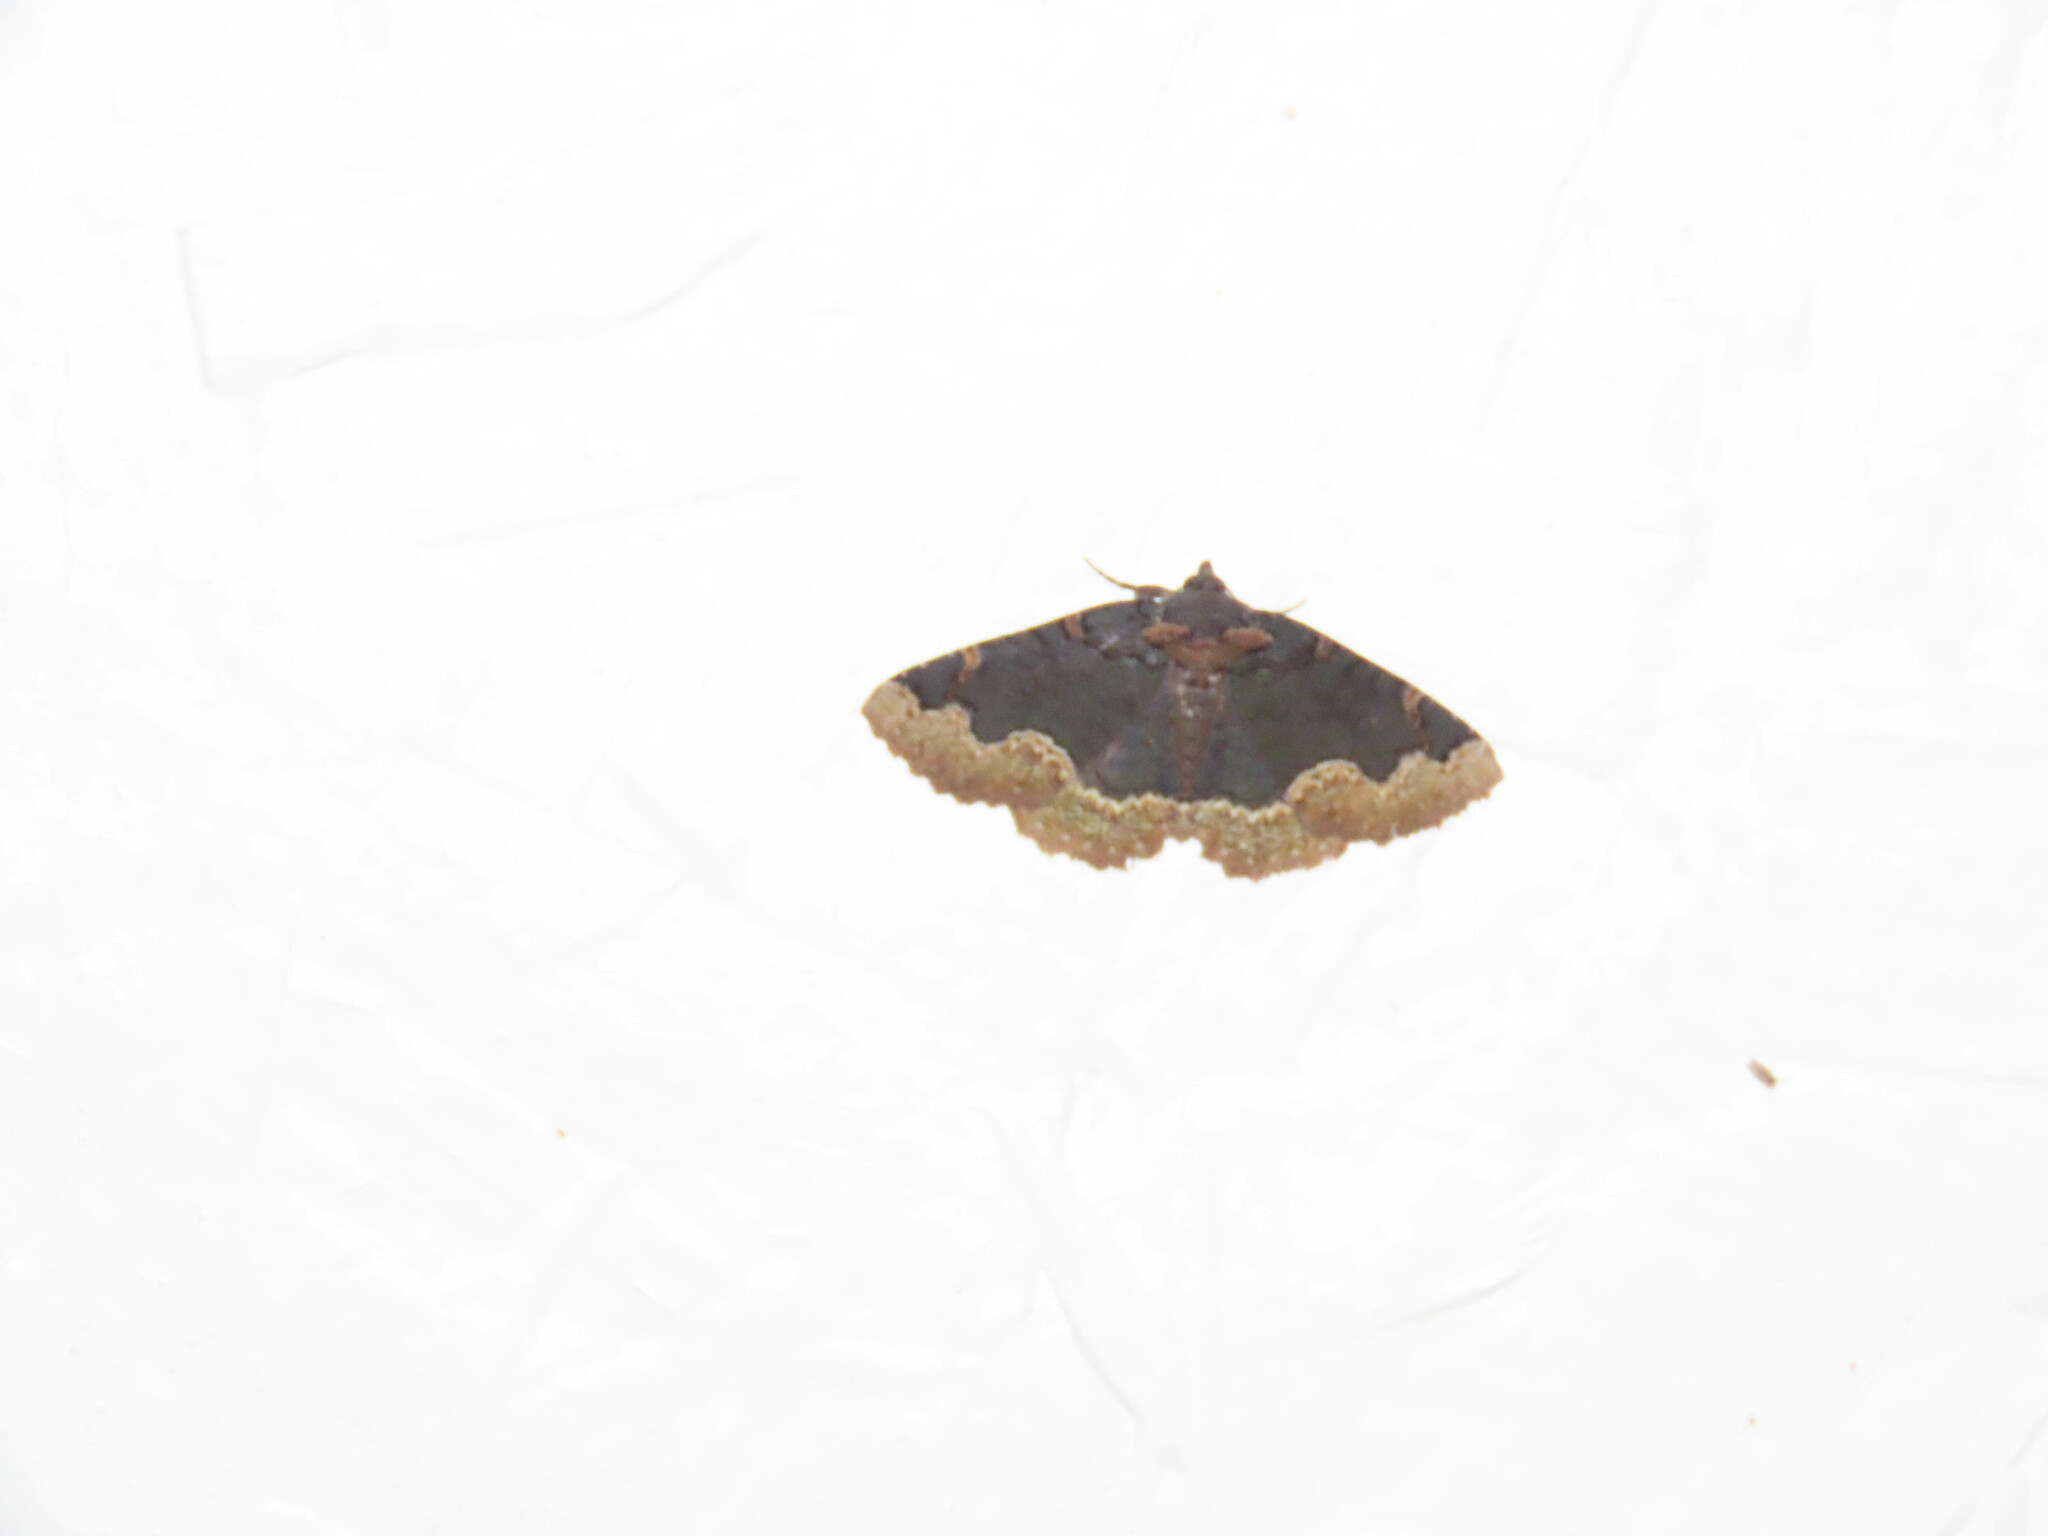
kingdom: Animalia
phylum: Arthropoda
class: Insecta
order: Lepidoptera
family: Erebidae
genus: Zale
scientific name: Zale horrida
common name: Horrid zale moth
